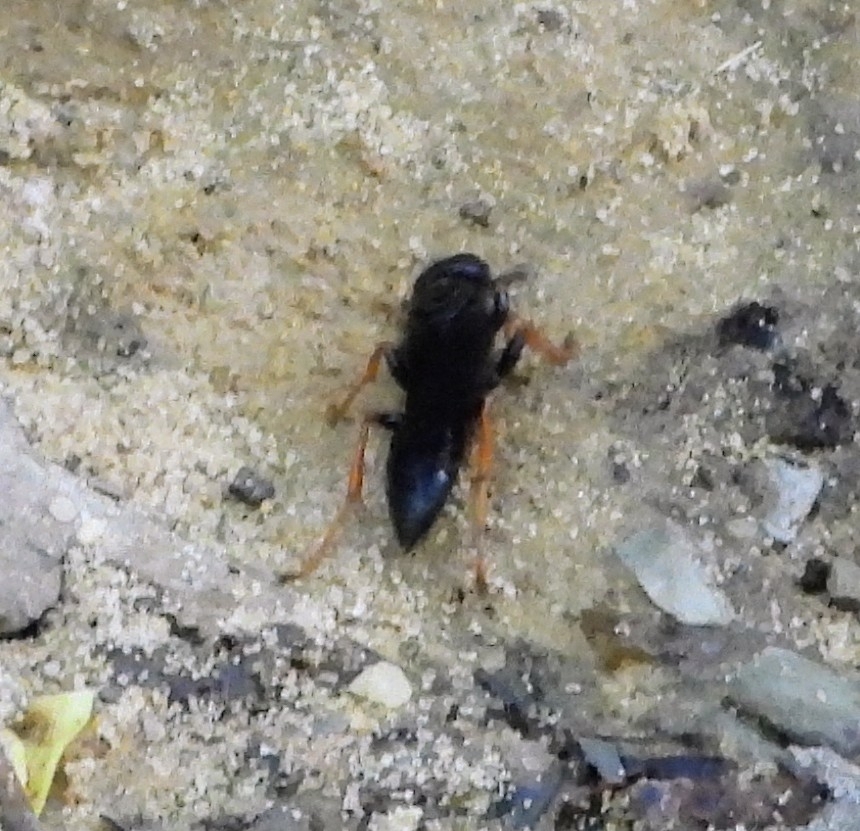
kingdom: Animalia
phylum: Arthropoda
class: Insecta
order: Hymenoptera
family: Sphecidae
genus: Podium
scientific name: Podium luctuosum
